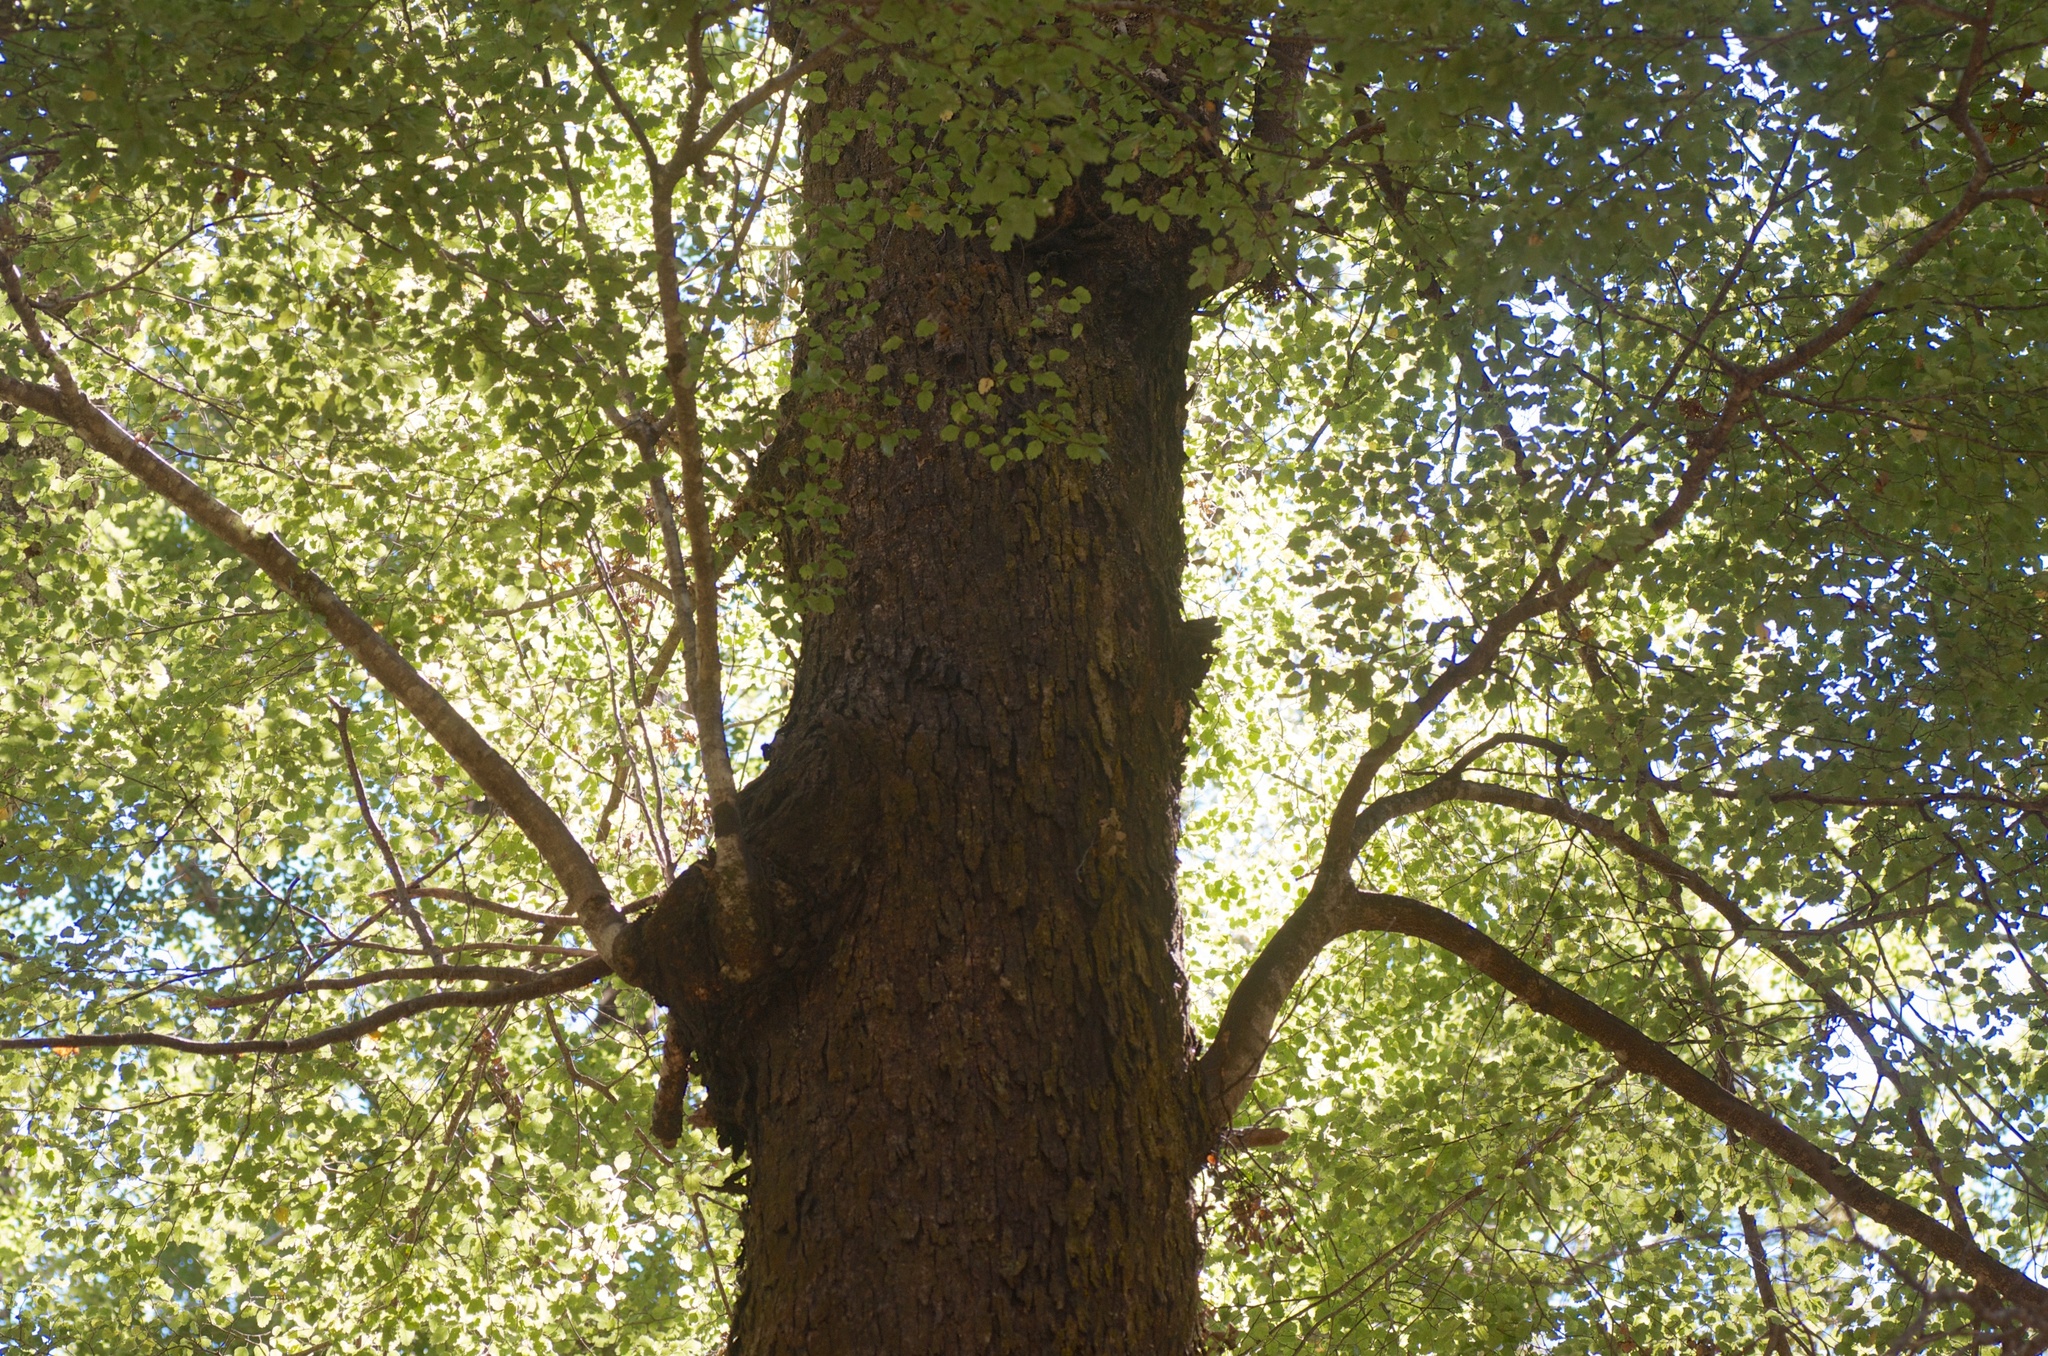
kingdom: Plantae
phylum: Tracheophyta
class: Magnoliopsida
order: Fagales
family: Nothofagaceae
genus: Nothofagus
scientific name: Nothofagus fusca
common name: Red beech
